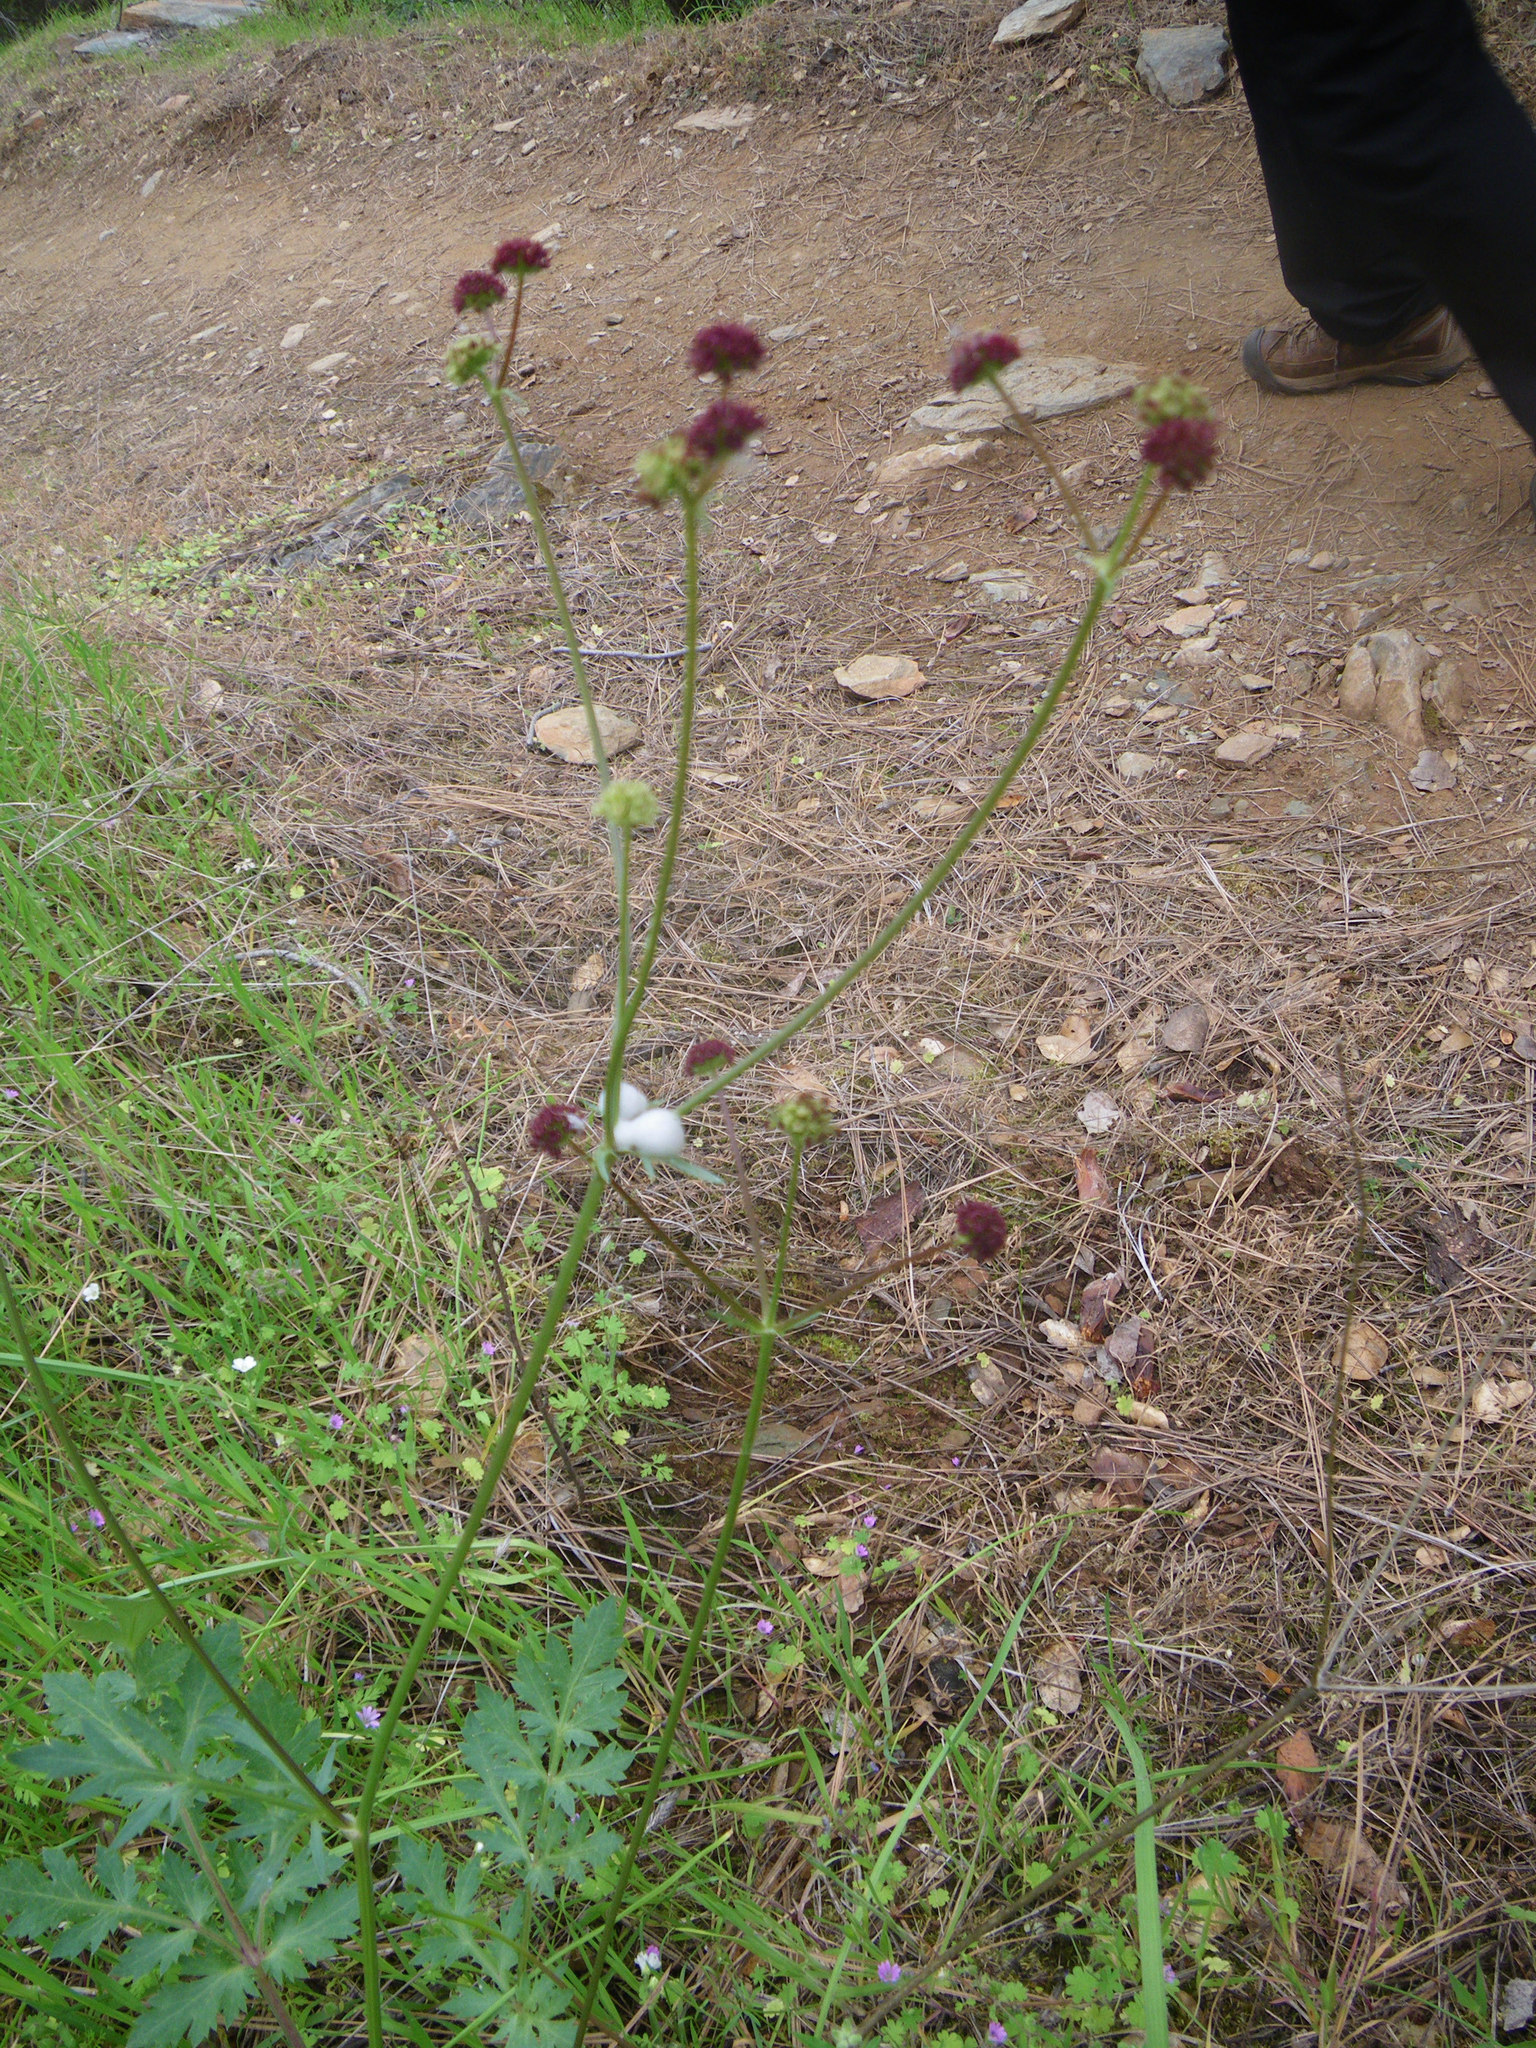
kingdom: Plantae
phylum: Tracheophyta
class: Magnoliopsida
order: Apiales
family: Apiaceae
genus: Sanicula
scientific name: Sanicula bipinnatifida
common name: Shoe-buttons
